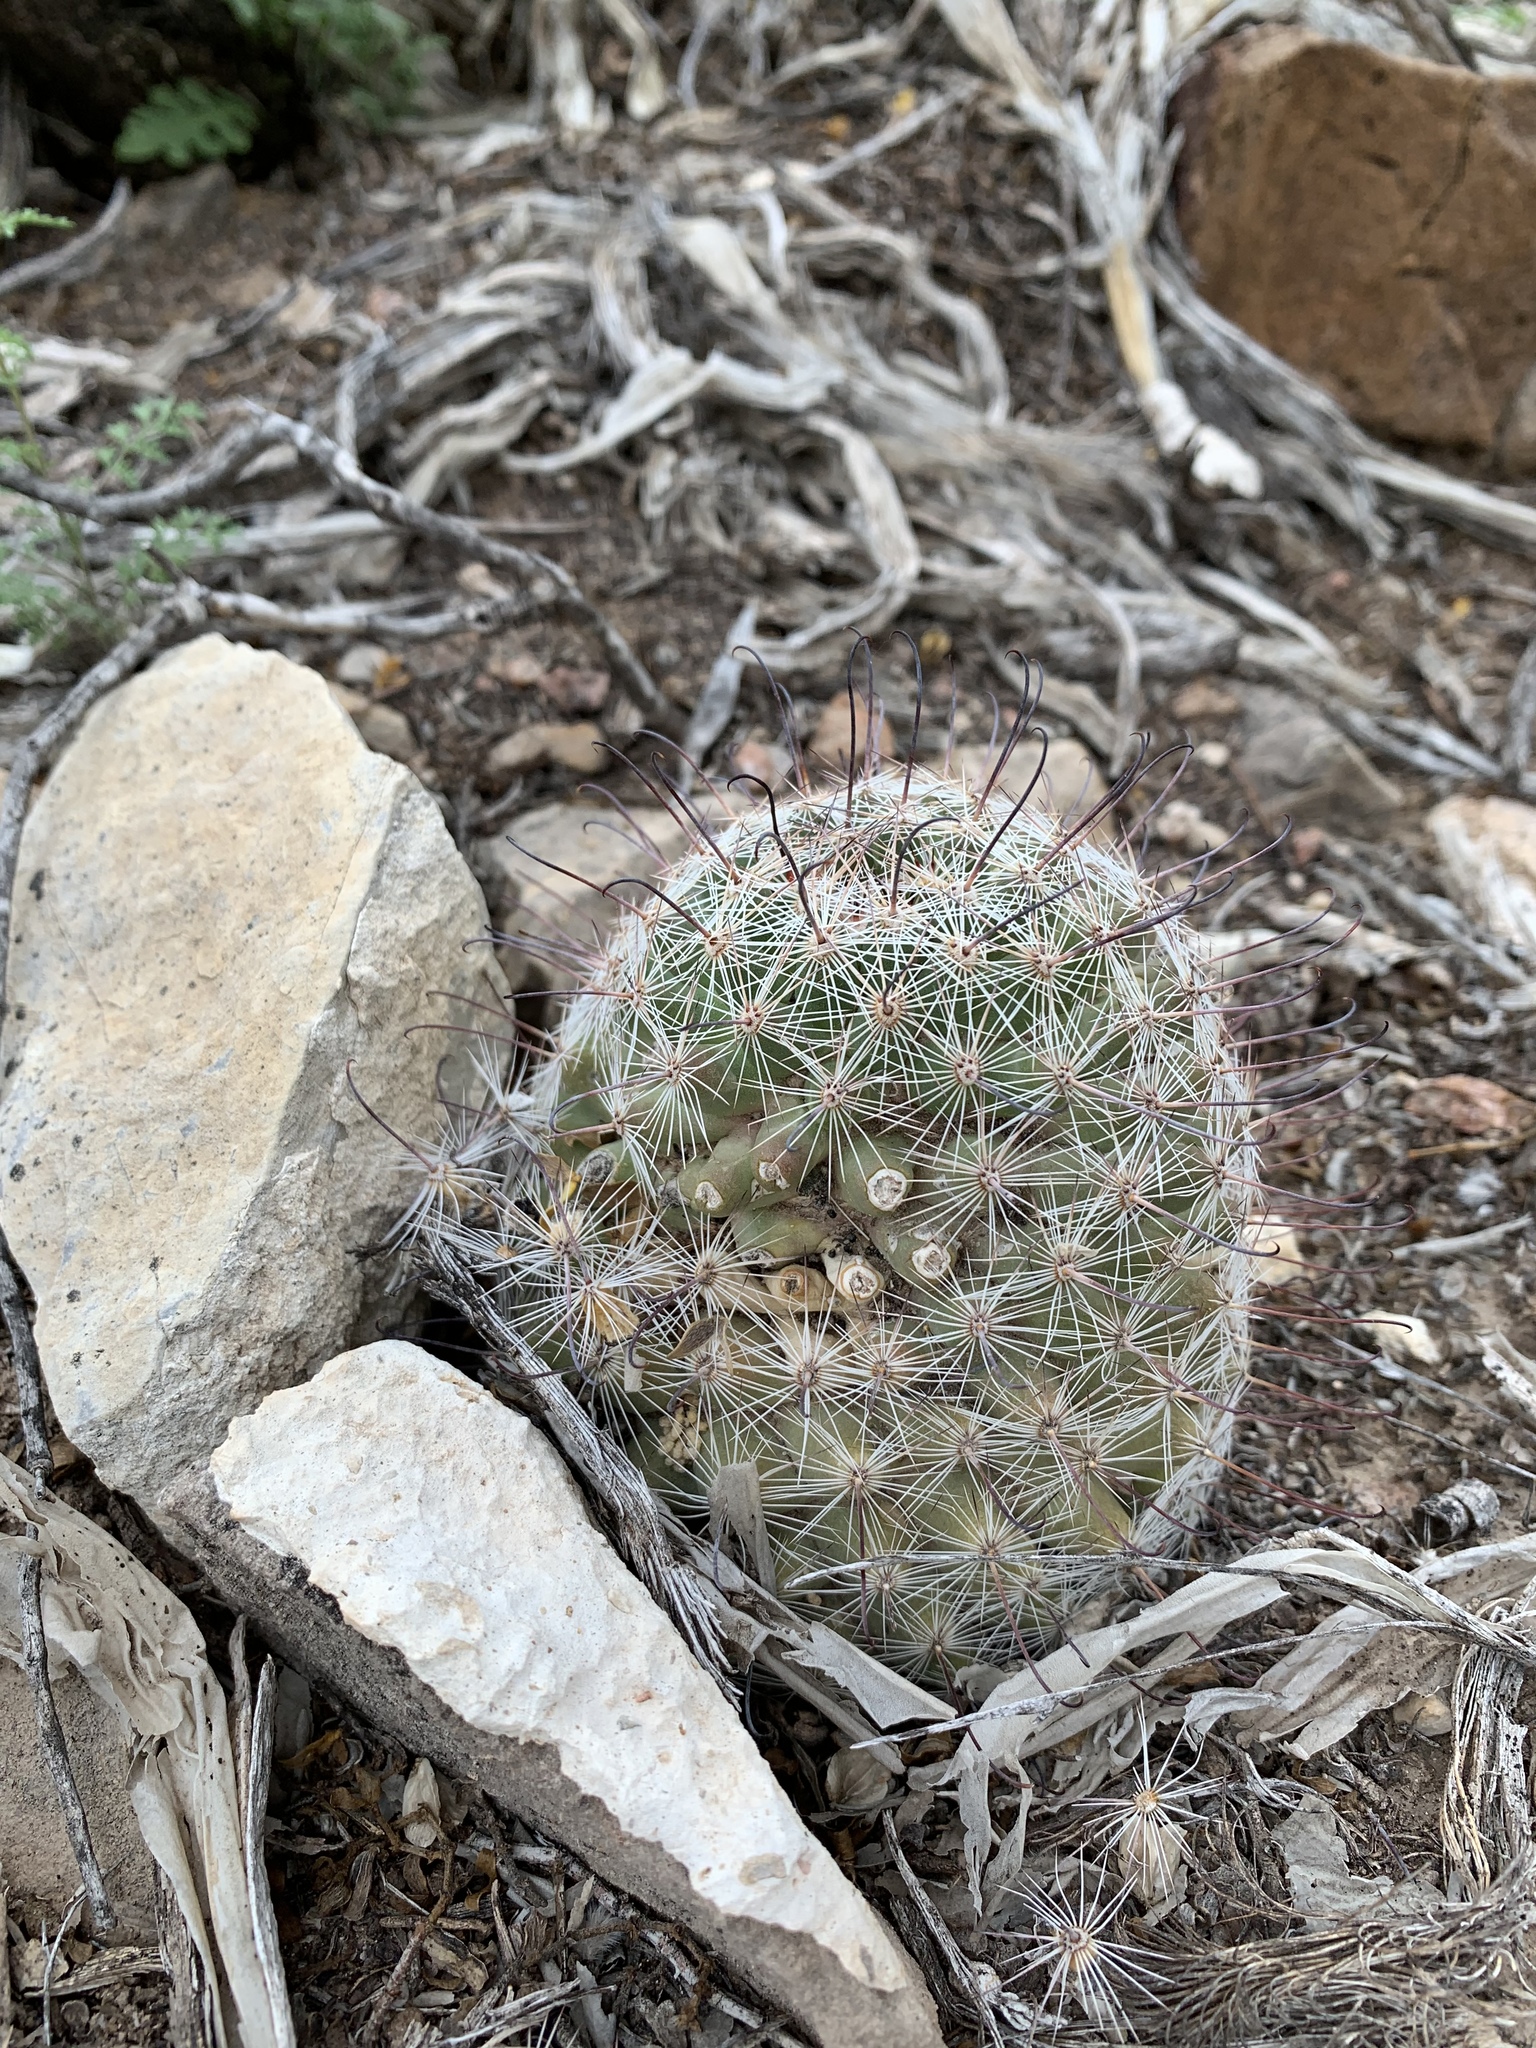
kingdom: Plantae
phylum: Tracheophyta
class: Magnoliopsida
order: Caryophyllales
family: Cactaceae
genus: Cochemiea
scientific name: Cochemiea grahamii
